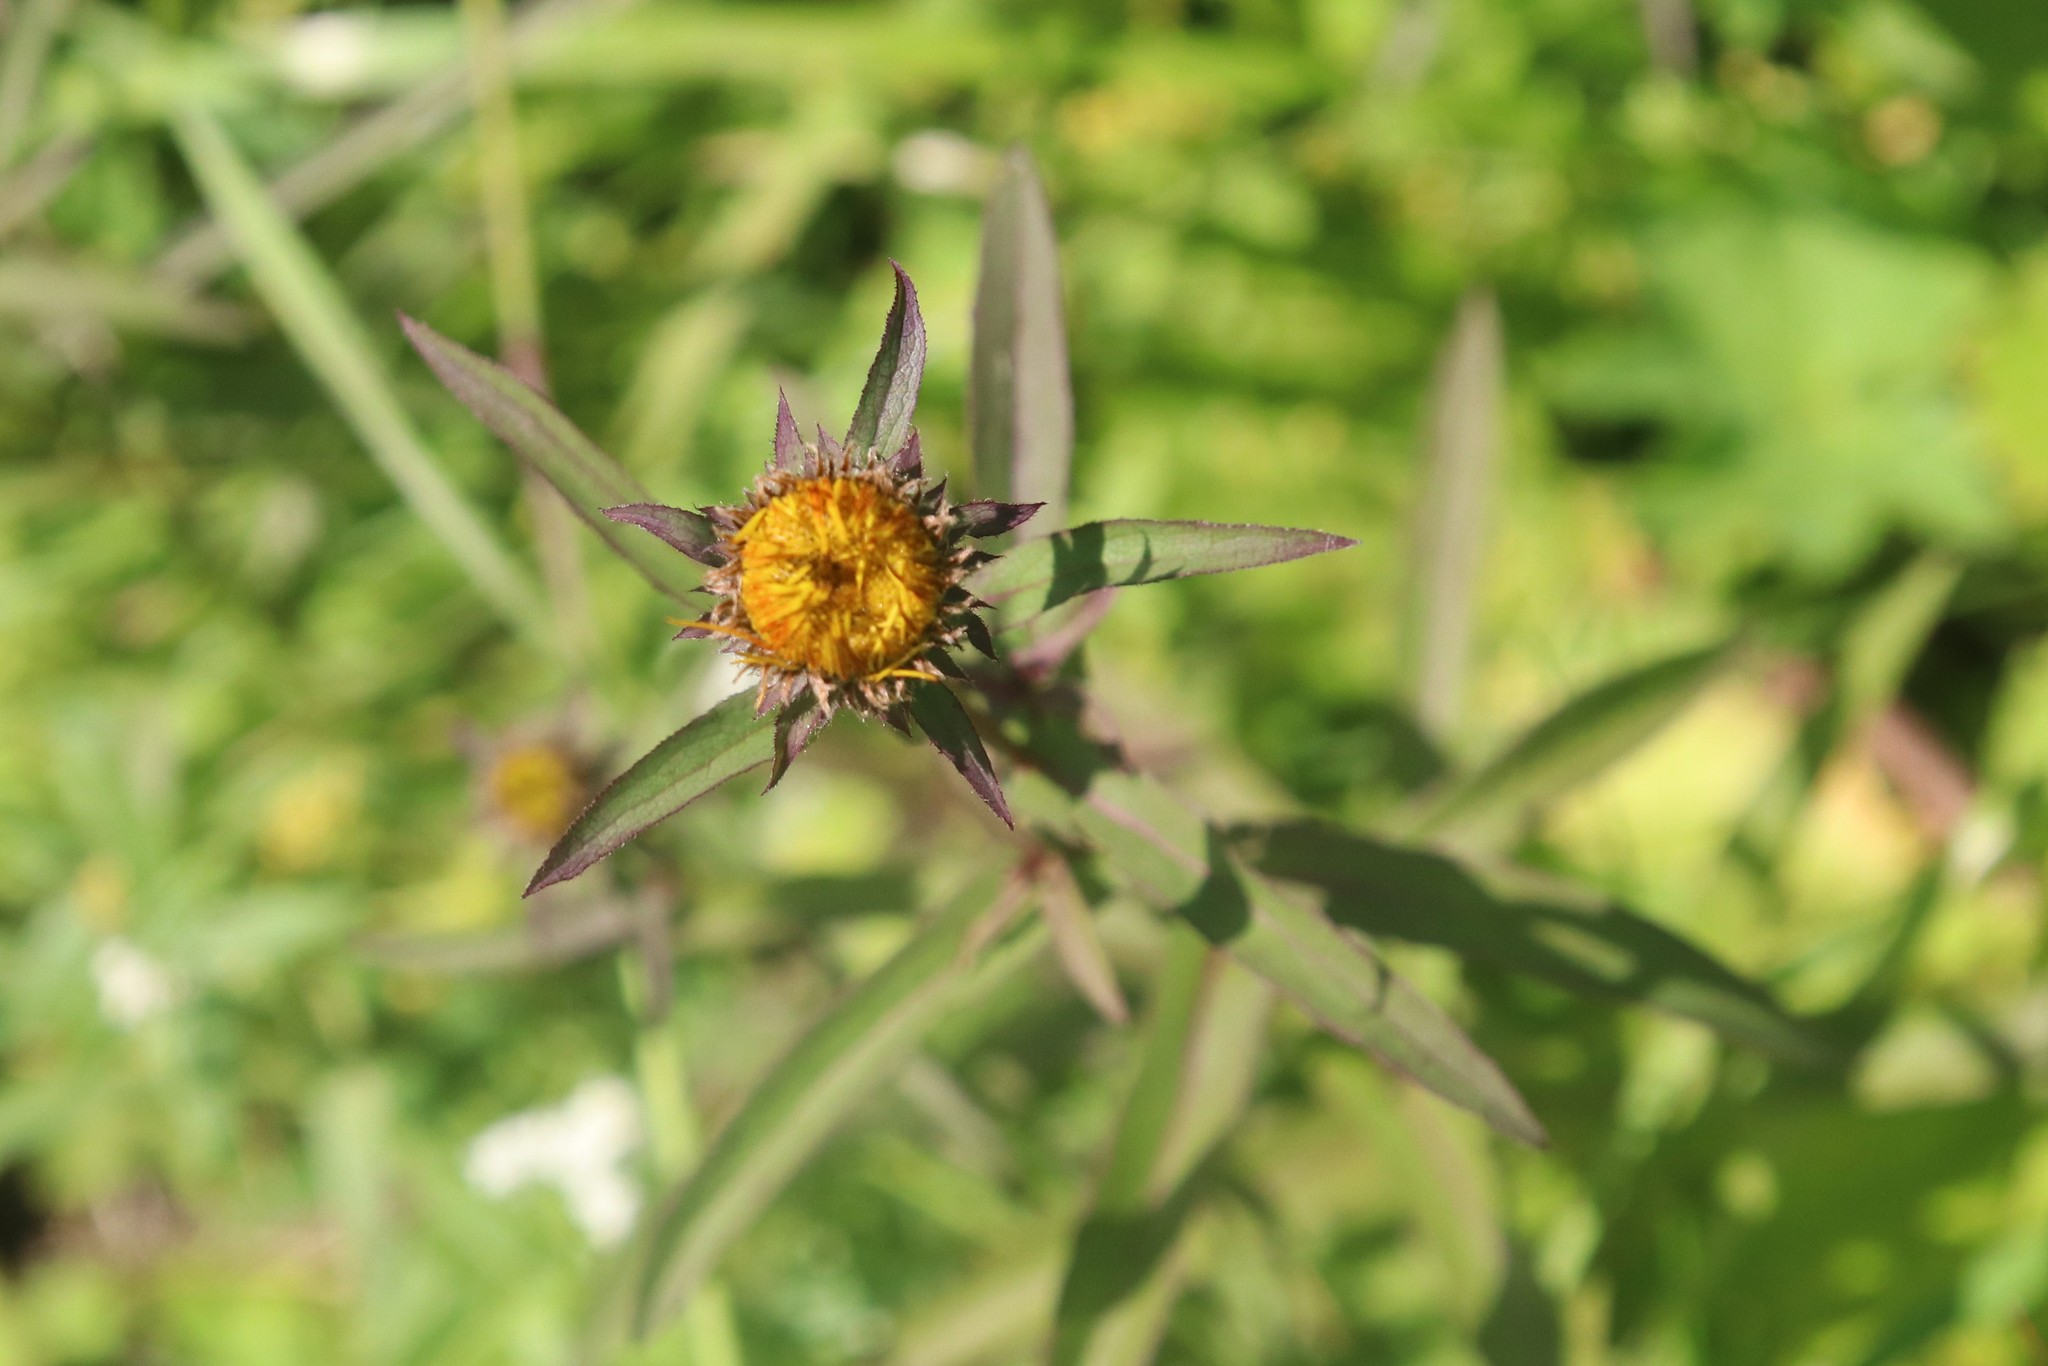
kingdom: Plantae
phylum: Tracheophyta
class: Magnoliopsida
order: Asterales
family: Asteraceae
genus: Pentanema
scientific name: Pentanema salicinum
